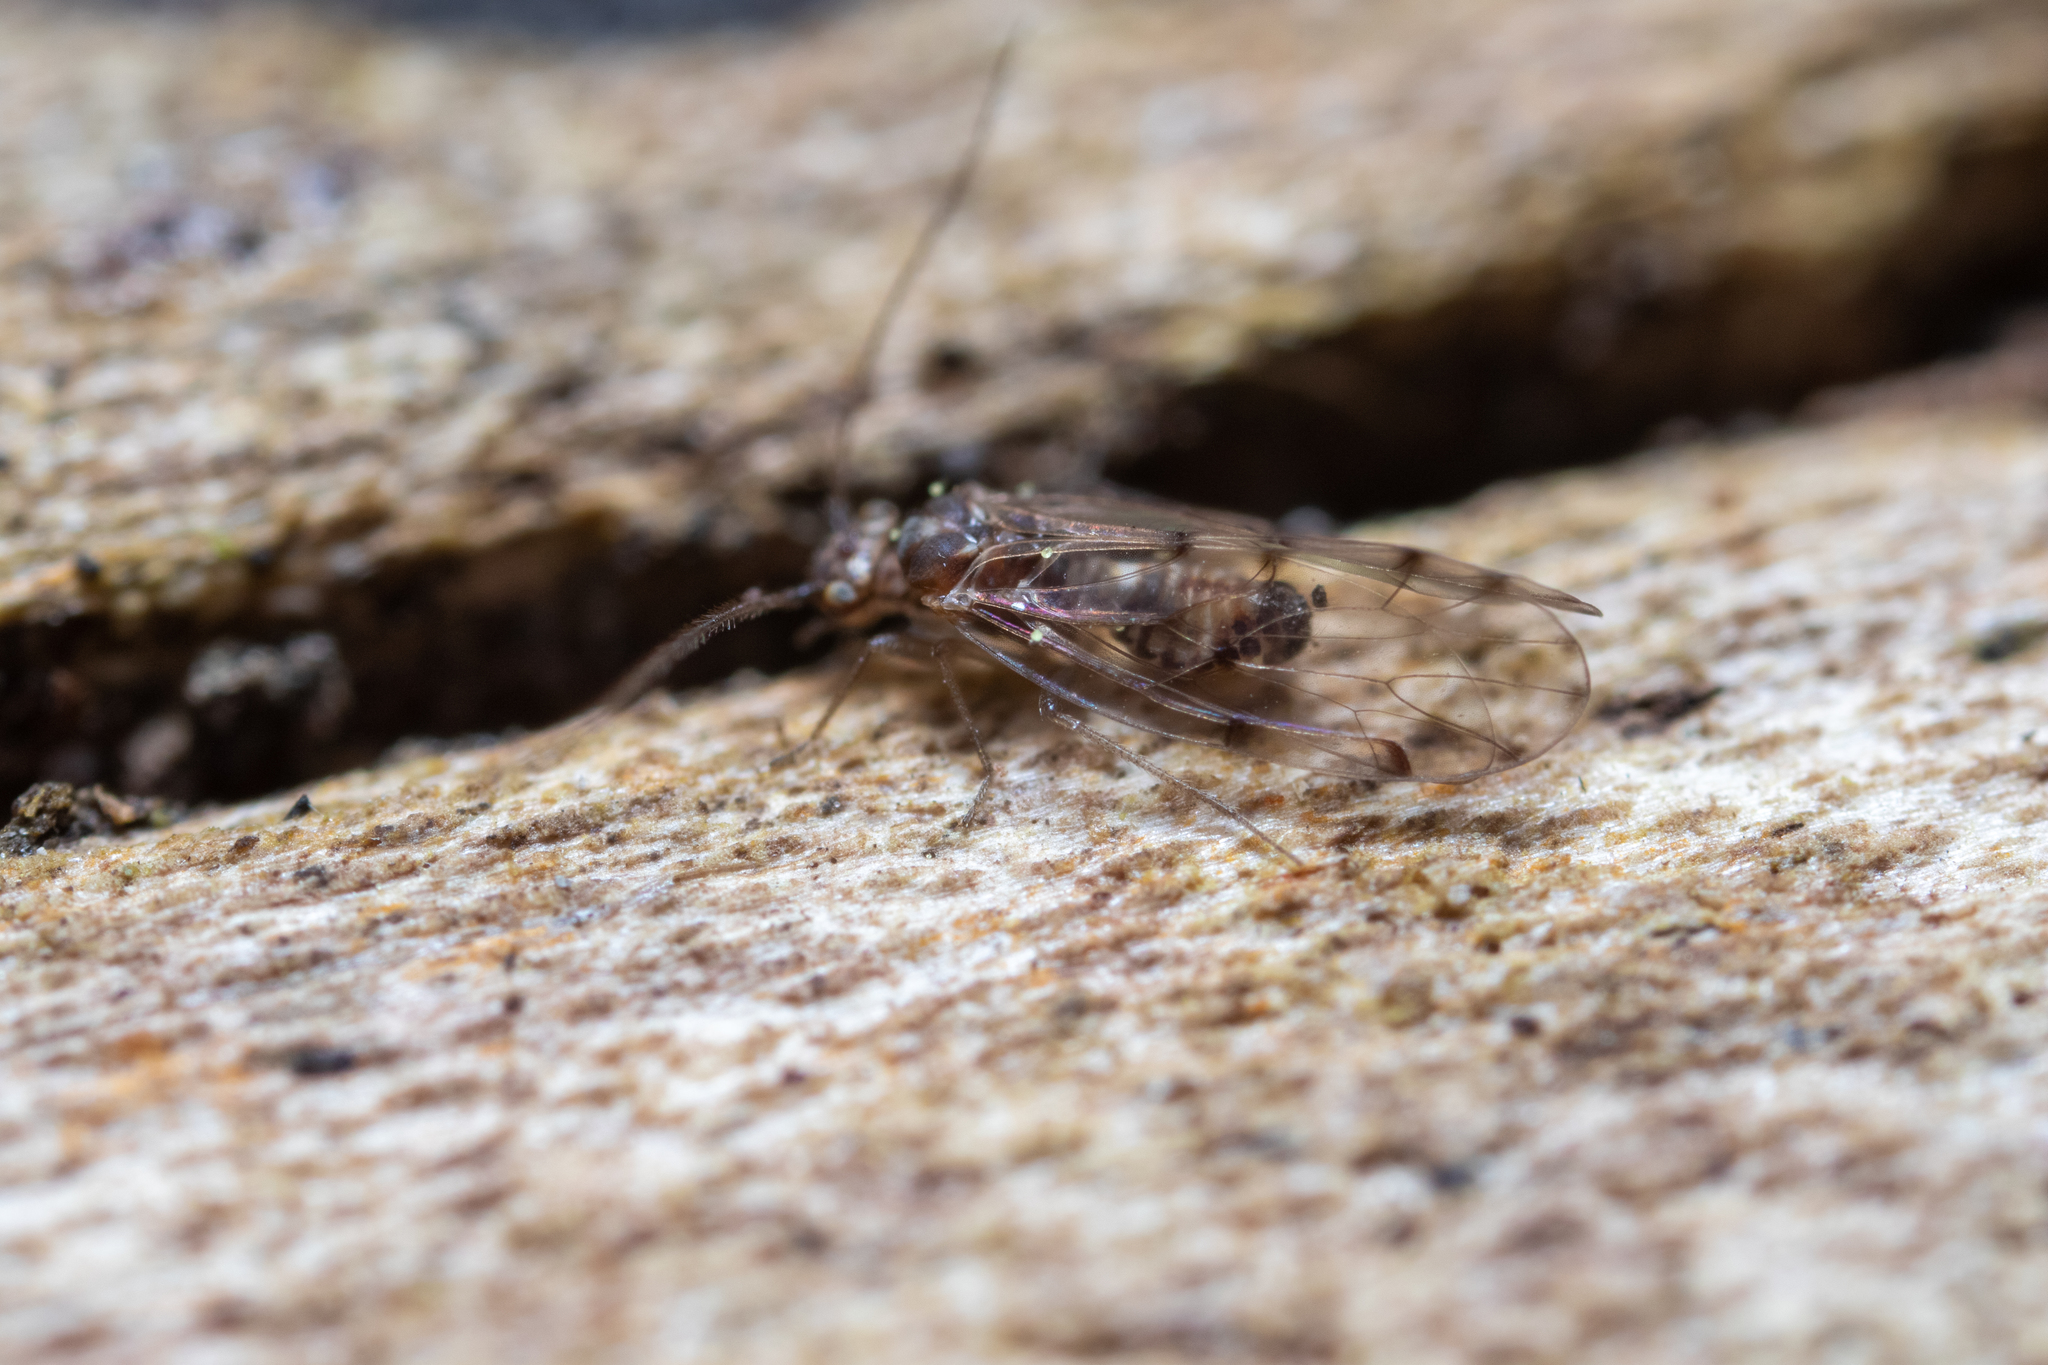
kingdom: Animalia
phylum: Arthropoda
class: Insecta
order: Psocodea
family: Ectopsocidae
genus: Ectopsocus
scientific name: Ectopsocus petersi
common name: Medium-sized bark louse
